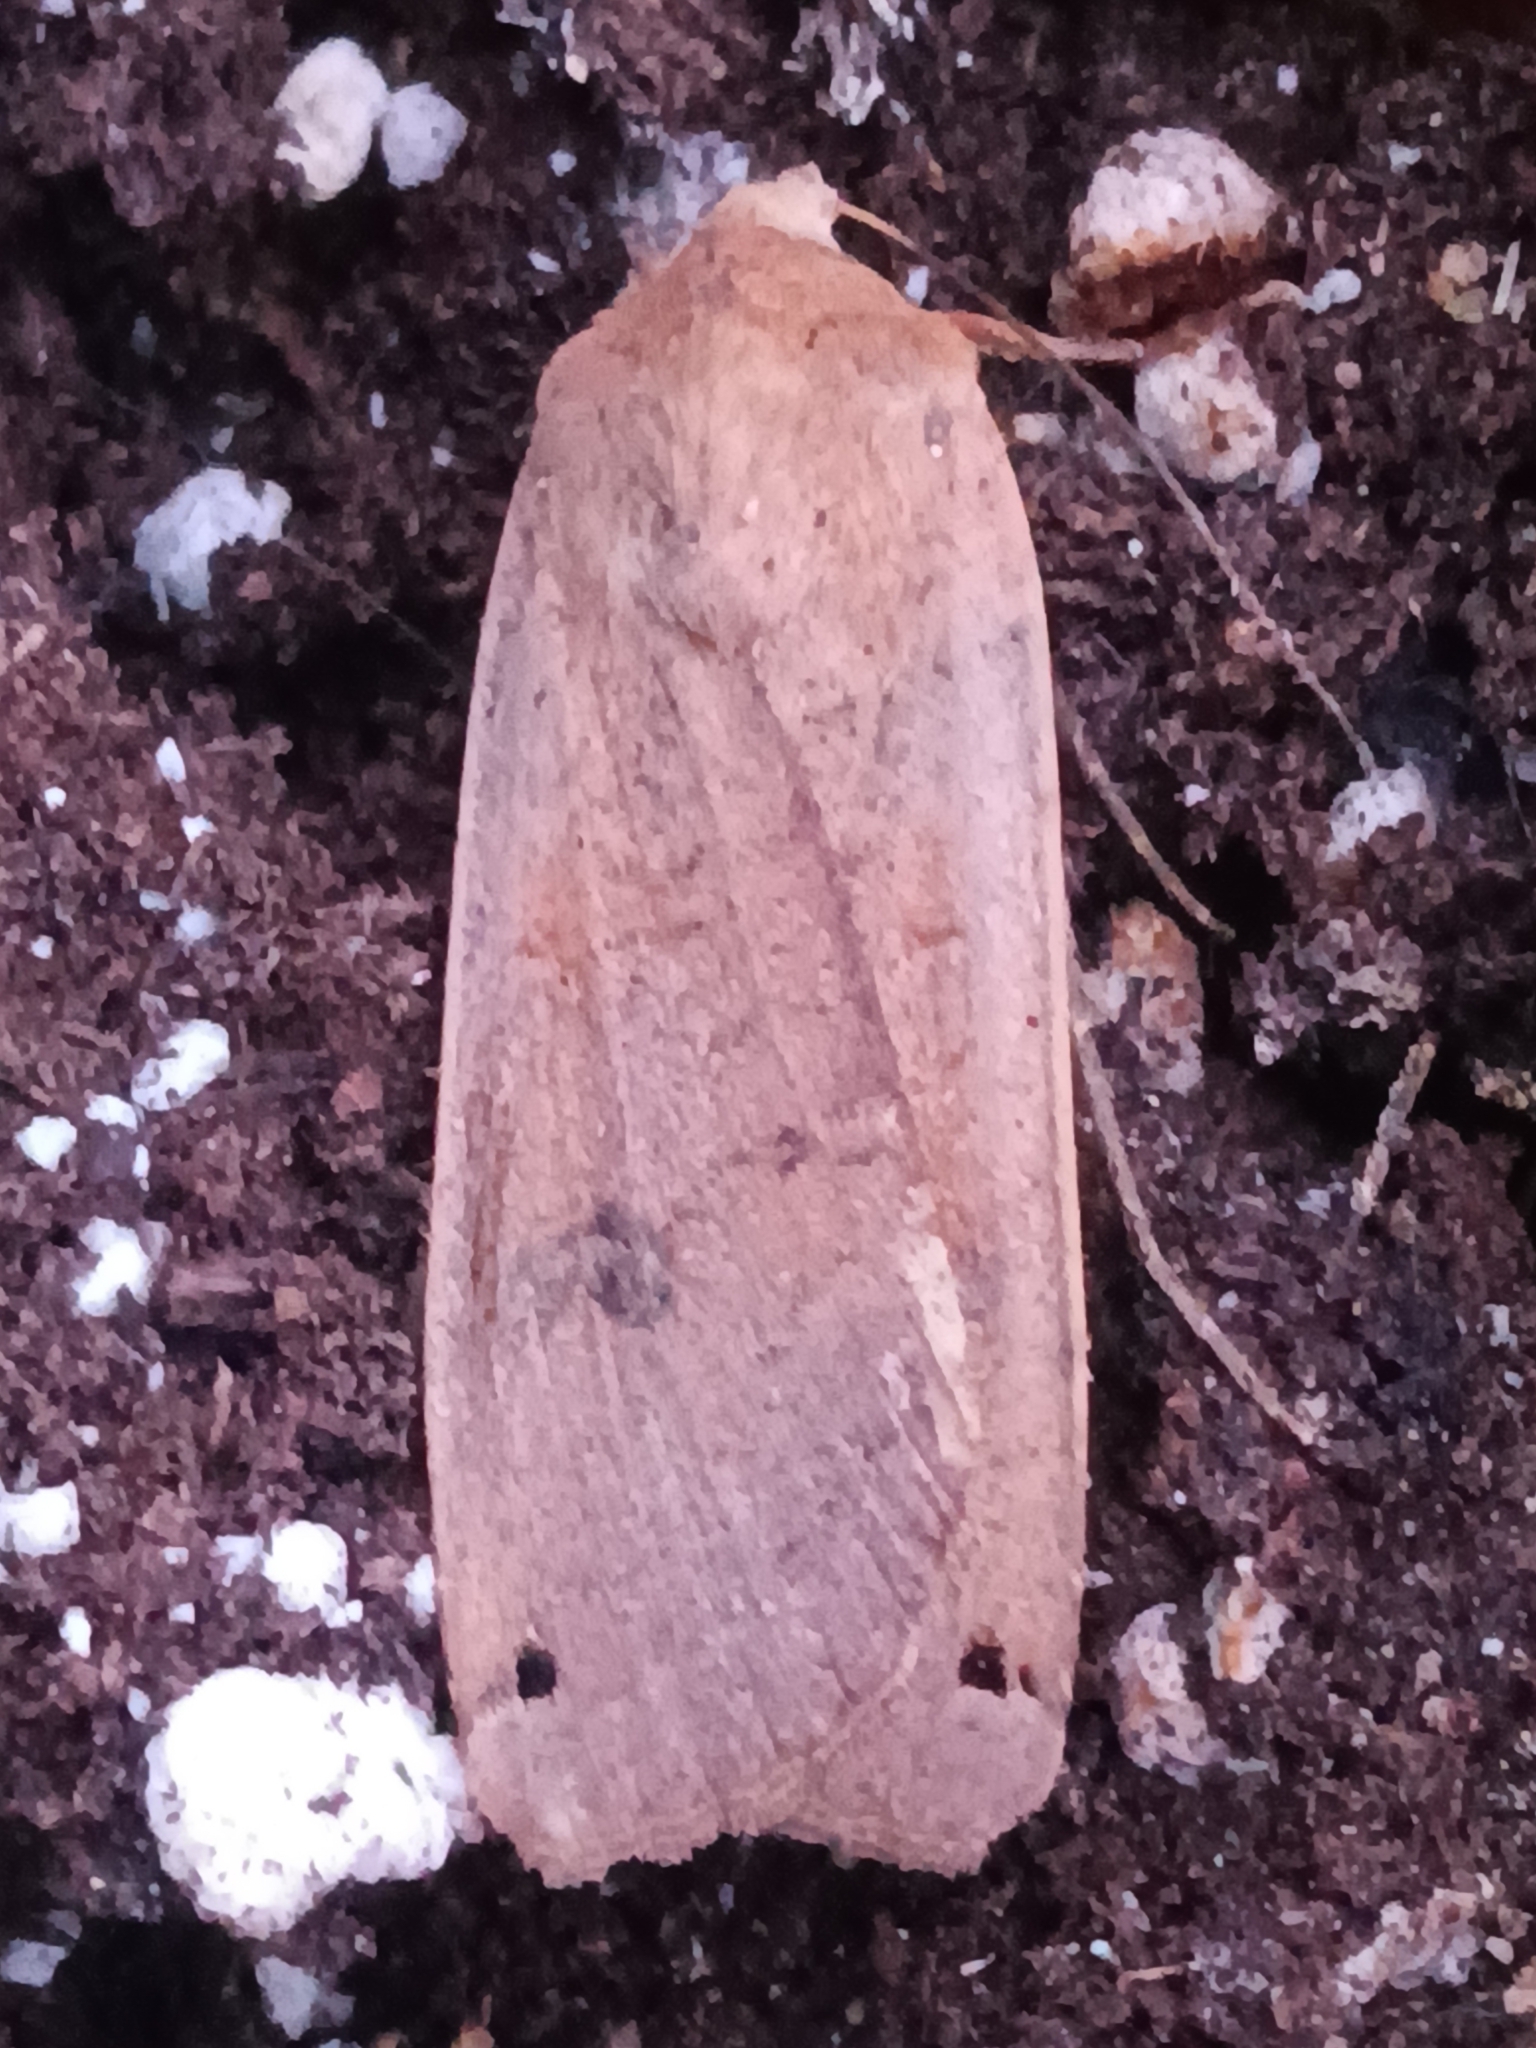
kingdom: Animalia
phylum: Arthropoda
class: Insecta
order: Lepidoptera
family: Noctuidae
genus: Noctua
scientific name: Noctua pronuba
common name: Large yellow underwing
